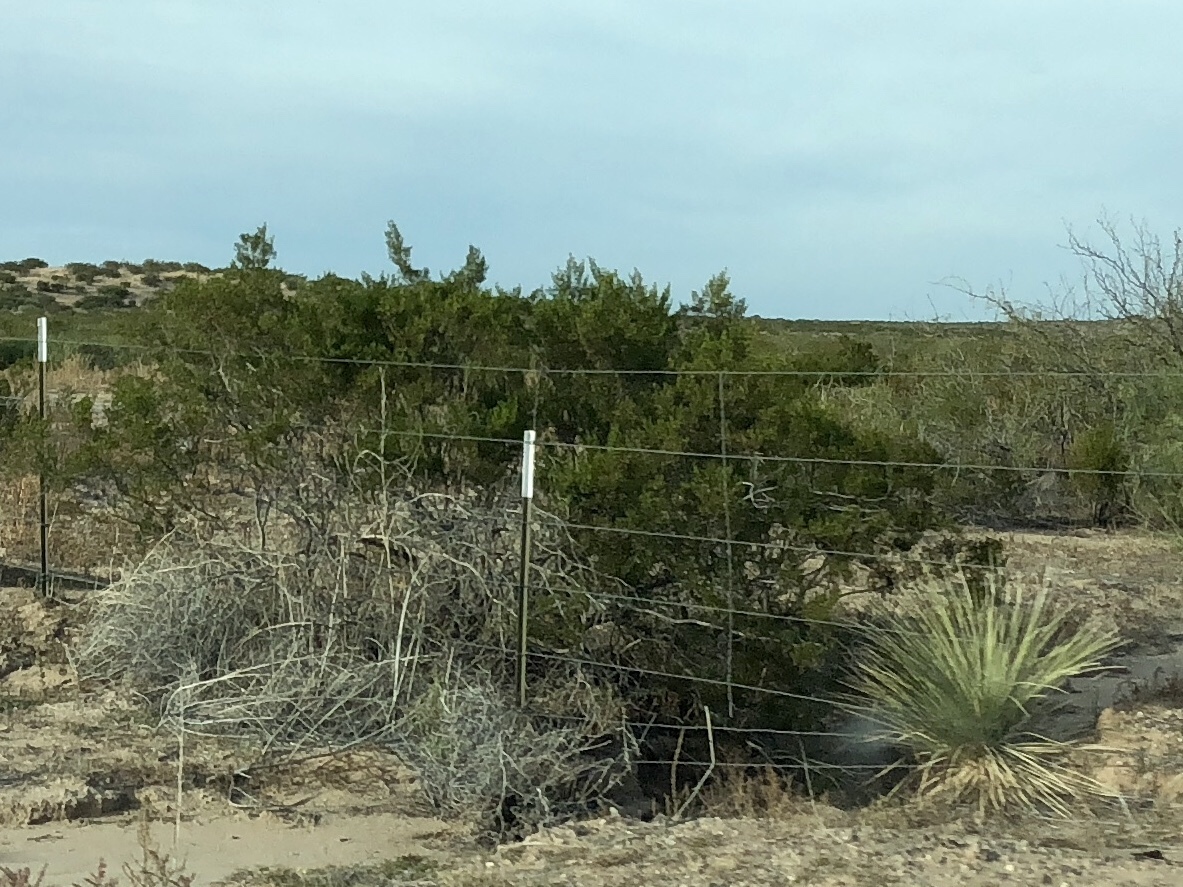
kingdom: Plantae
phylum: Tracheophyta
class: Magnoliopsida
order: Zygophyllales
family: Zygophyllaceae
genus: Larrea
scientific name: Larrea tridentata
